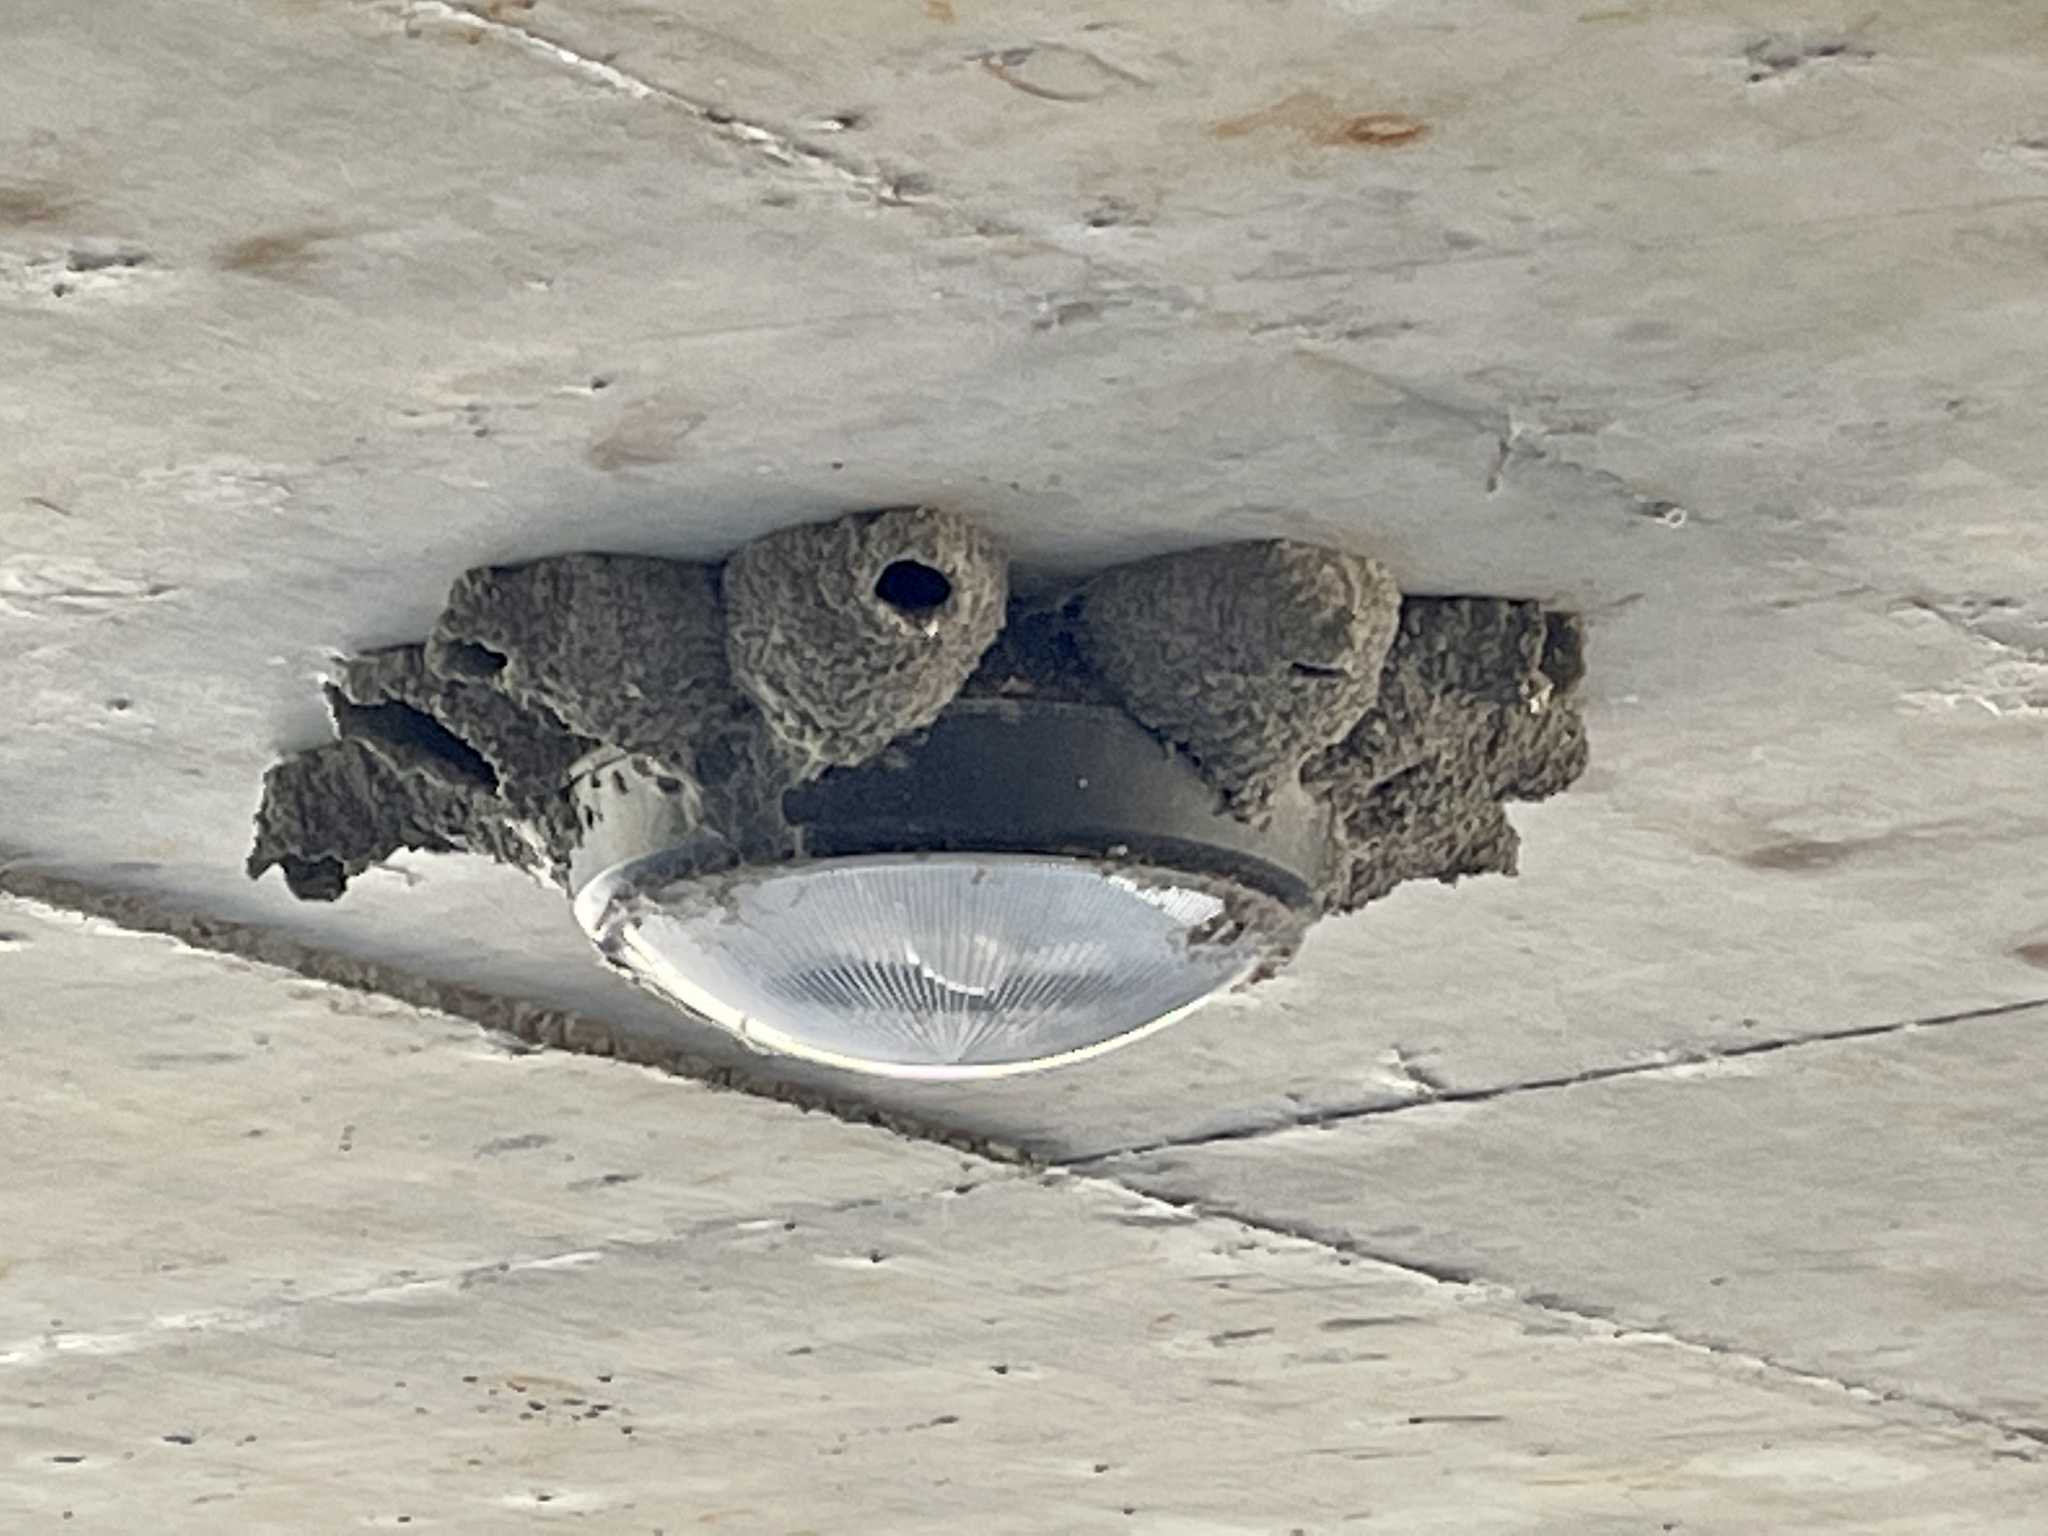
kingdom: Animalia
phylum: Chordata
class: Aves
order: Passeriformes
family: Hirundinidae
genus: Petrochelidon
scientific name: Petrochelidon pyrrhonota
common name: American cliff swallow
